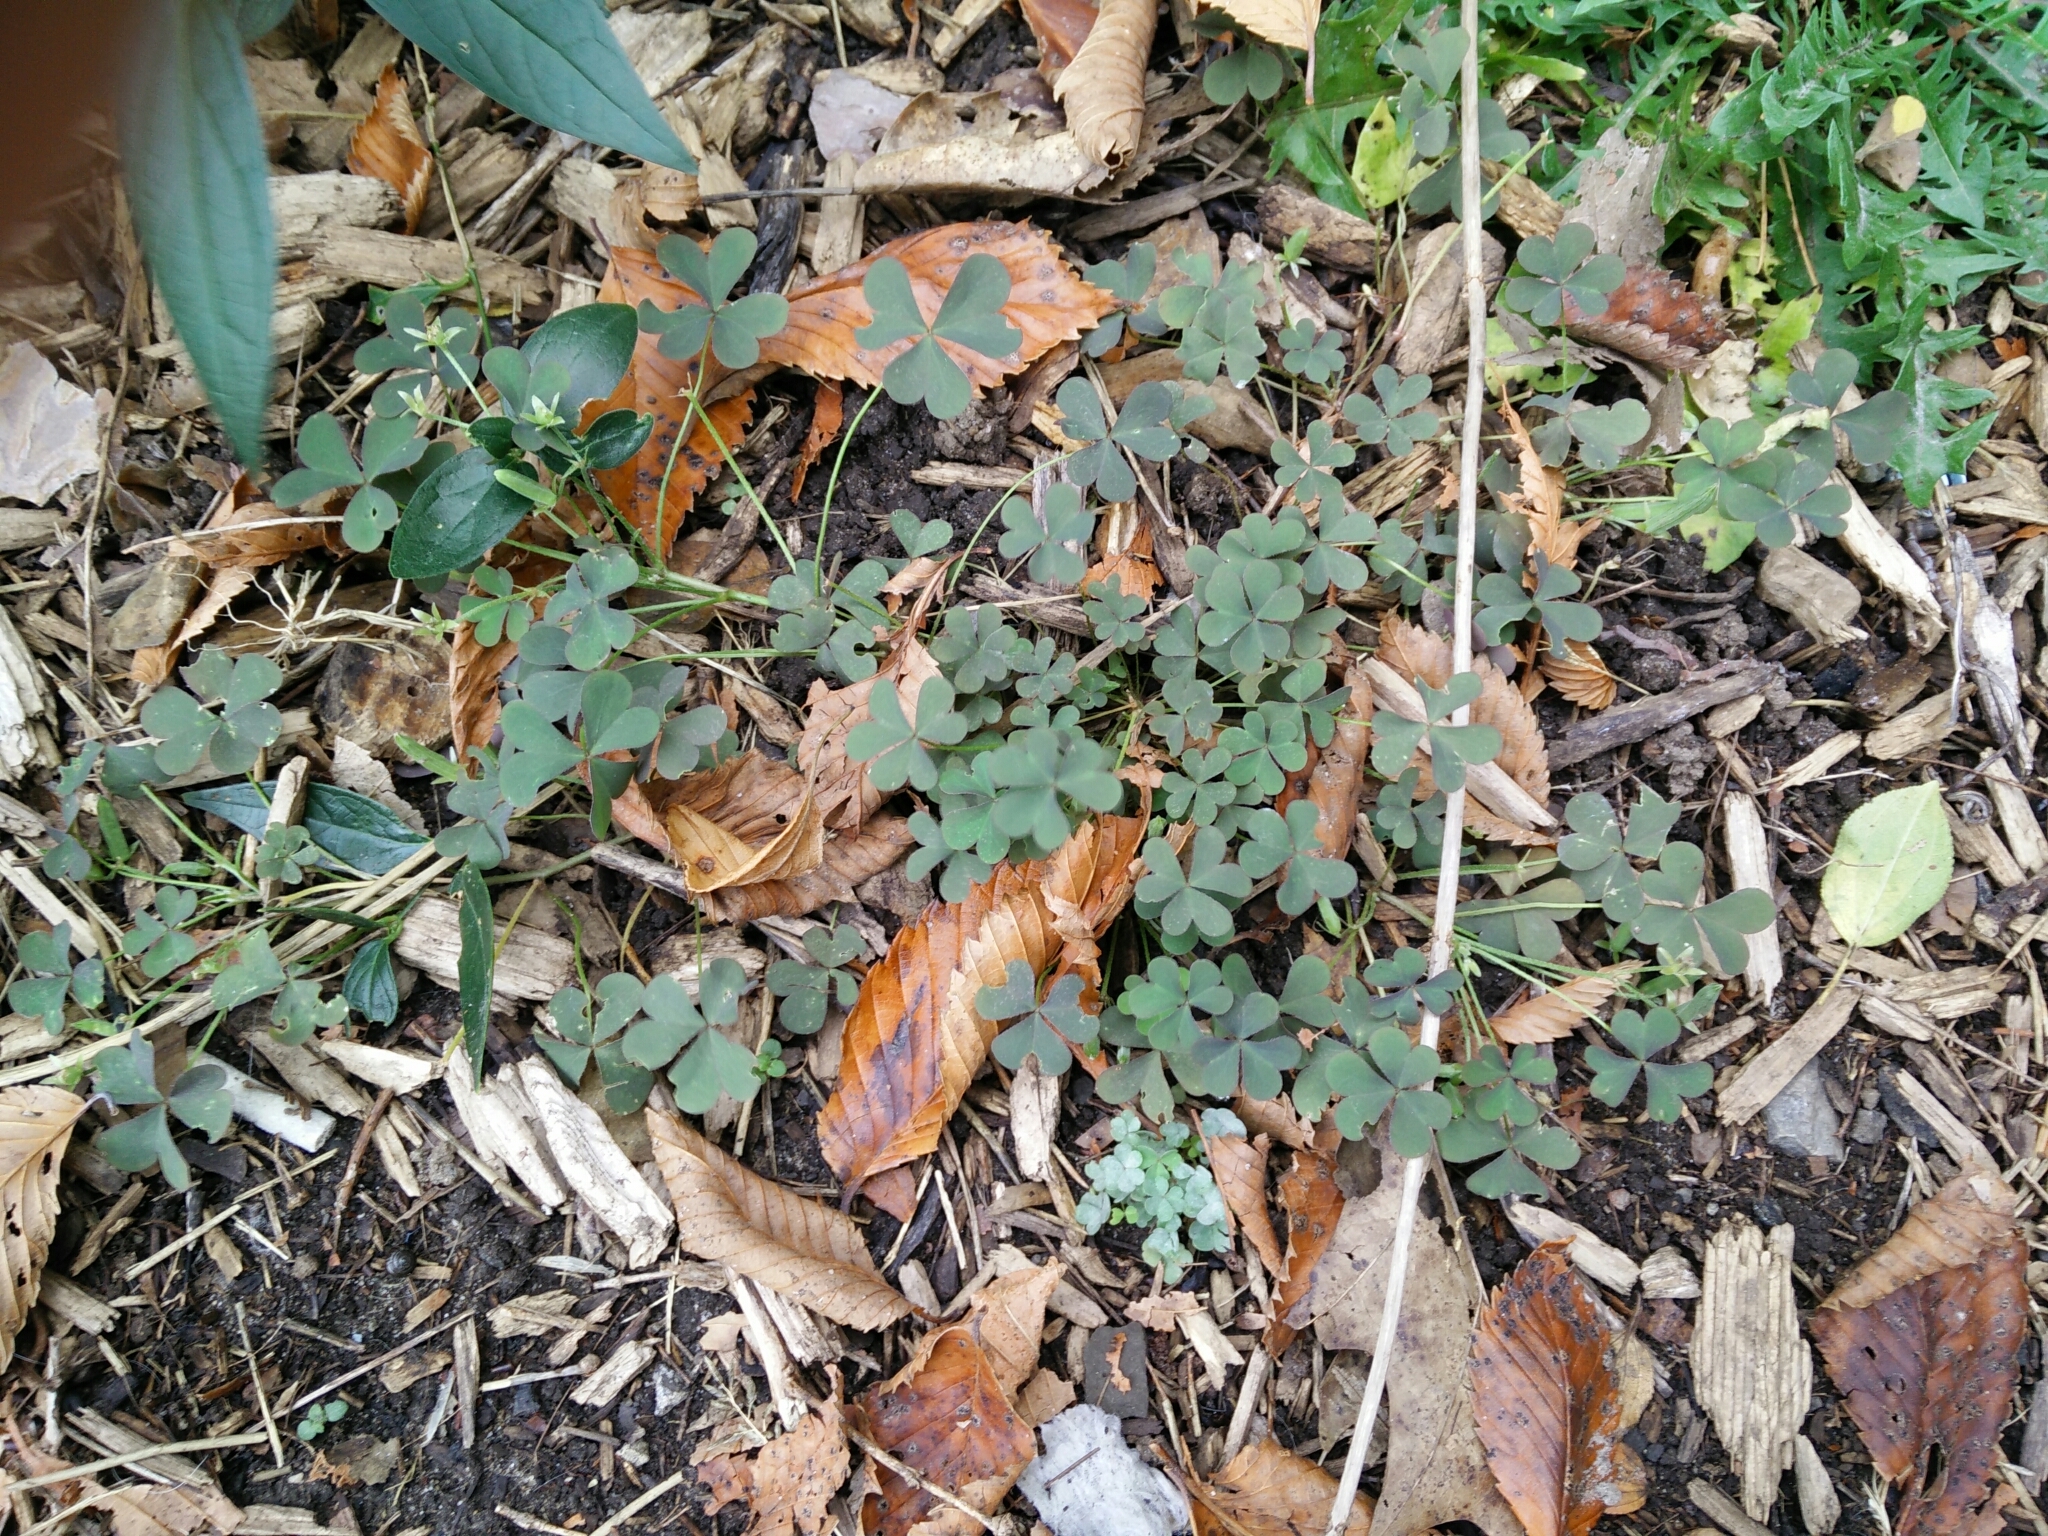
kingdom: Plantae
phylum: Tracheophyta
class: Magnoliopsida
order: Oxalidales
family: Oxalidaceae
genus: Oxalis
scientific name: Oxalis corniculata
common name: Procumbent yellow-sorrel
